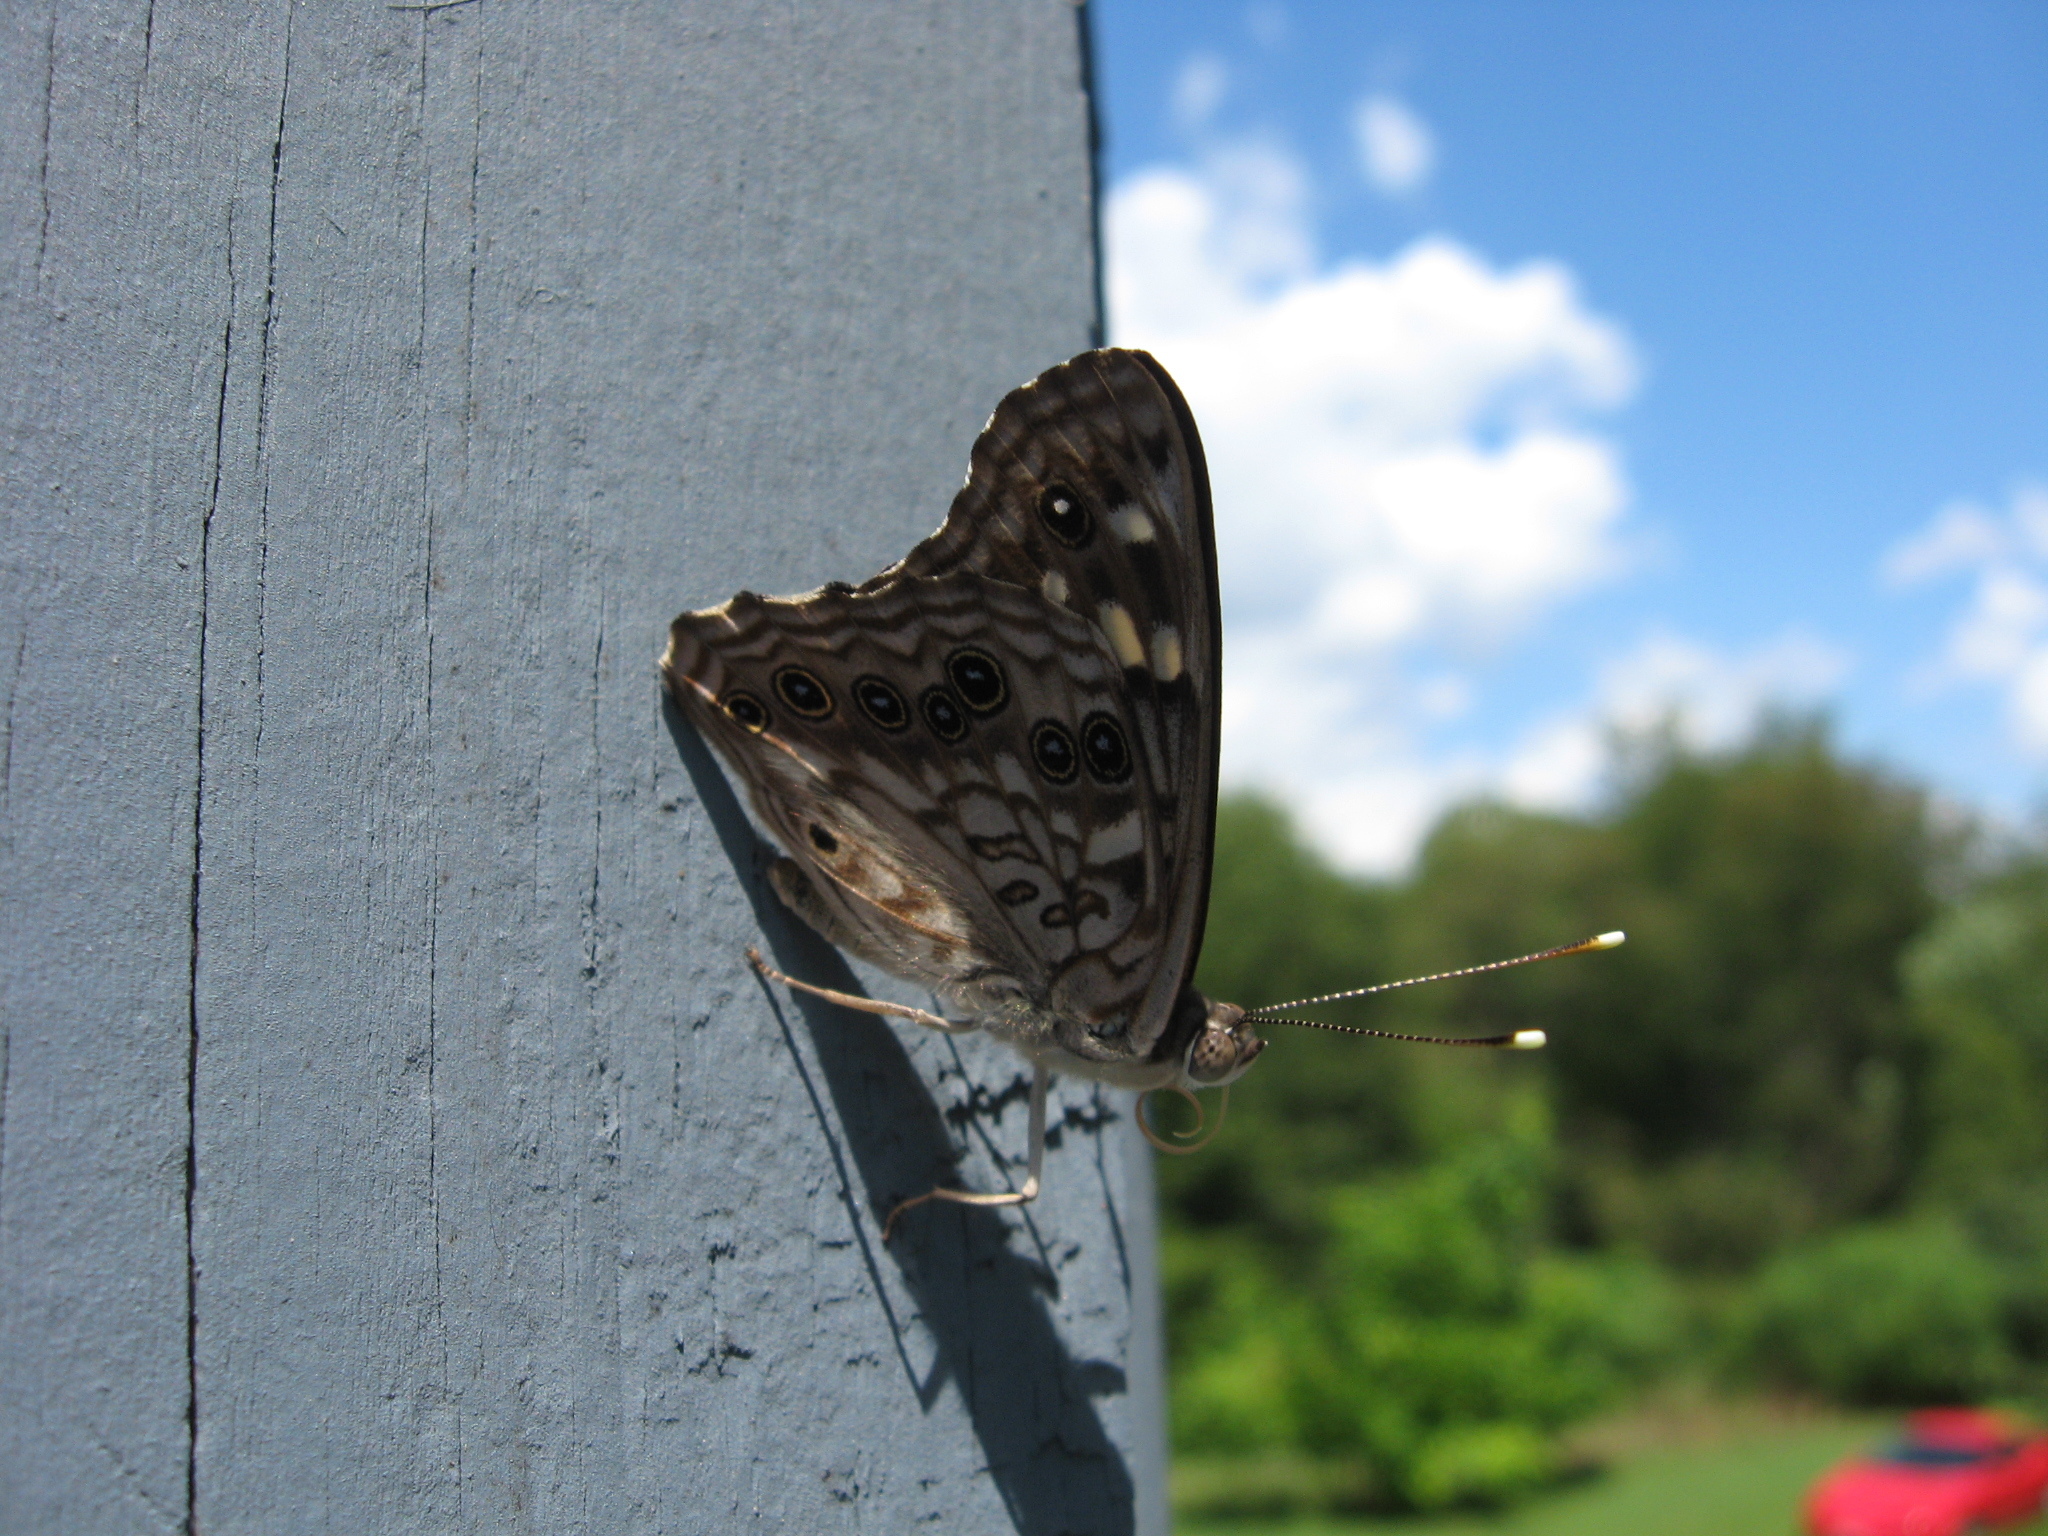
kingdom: Animalia
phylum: Arthropoda
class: Insecta
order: Lepidoptera
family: Nymphalidae
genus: Asterocampa
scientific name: Asterocampa celtis
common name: Hackberry emperor
